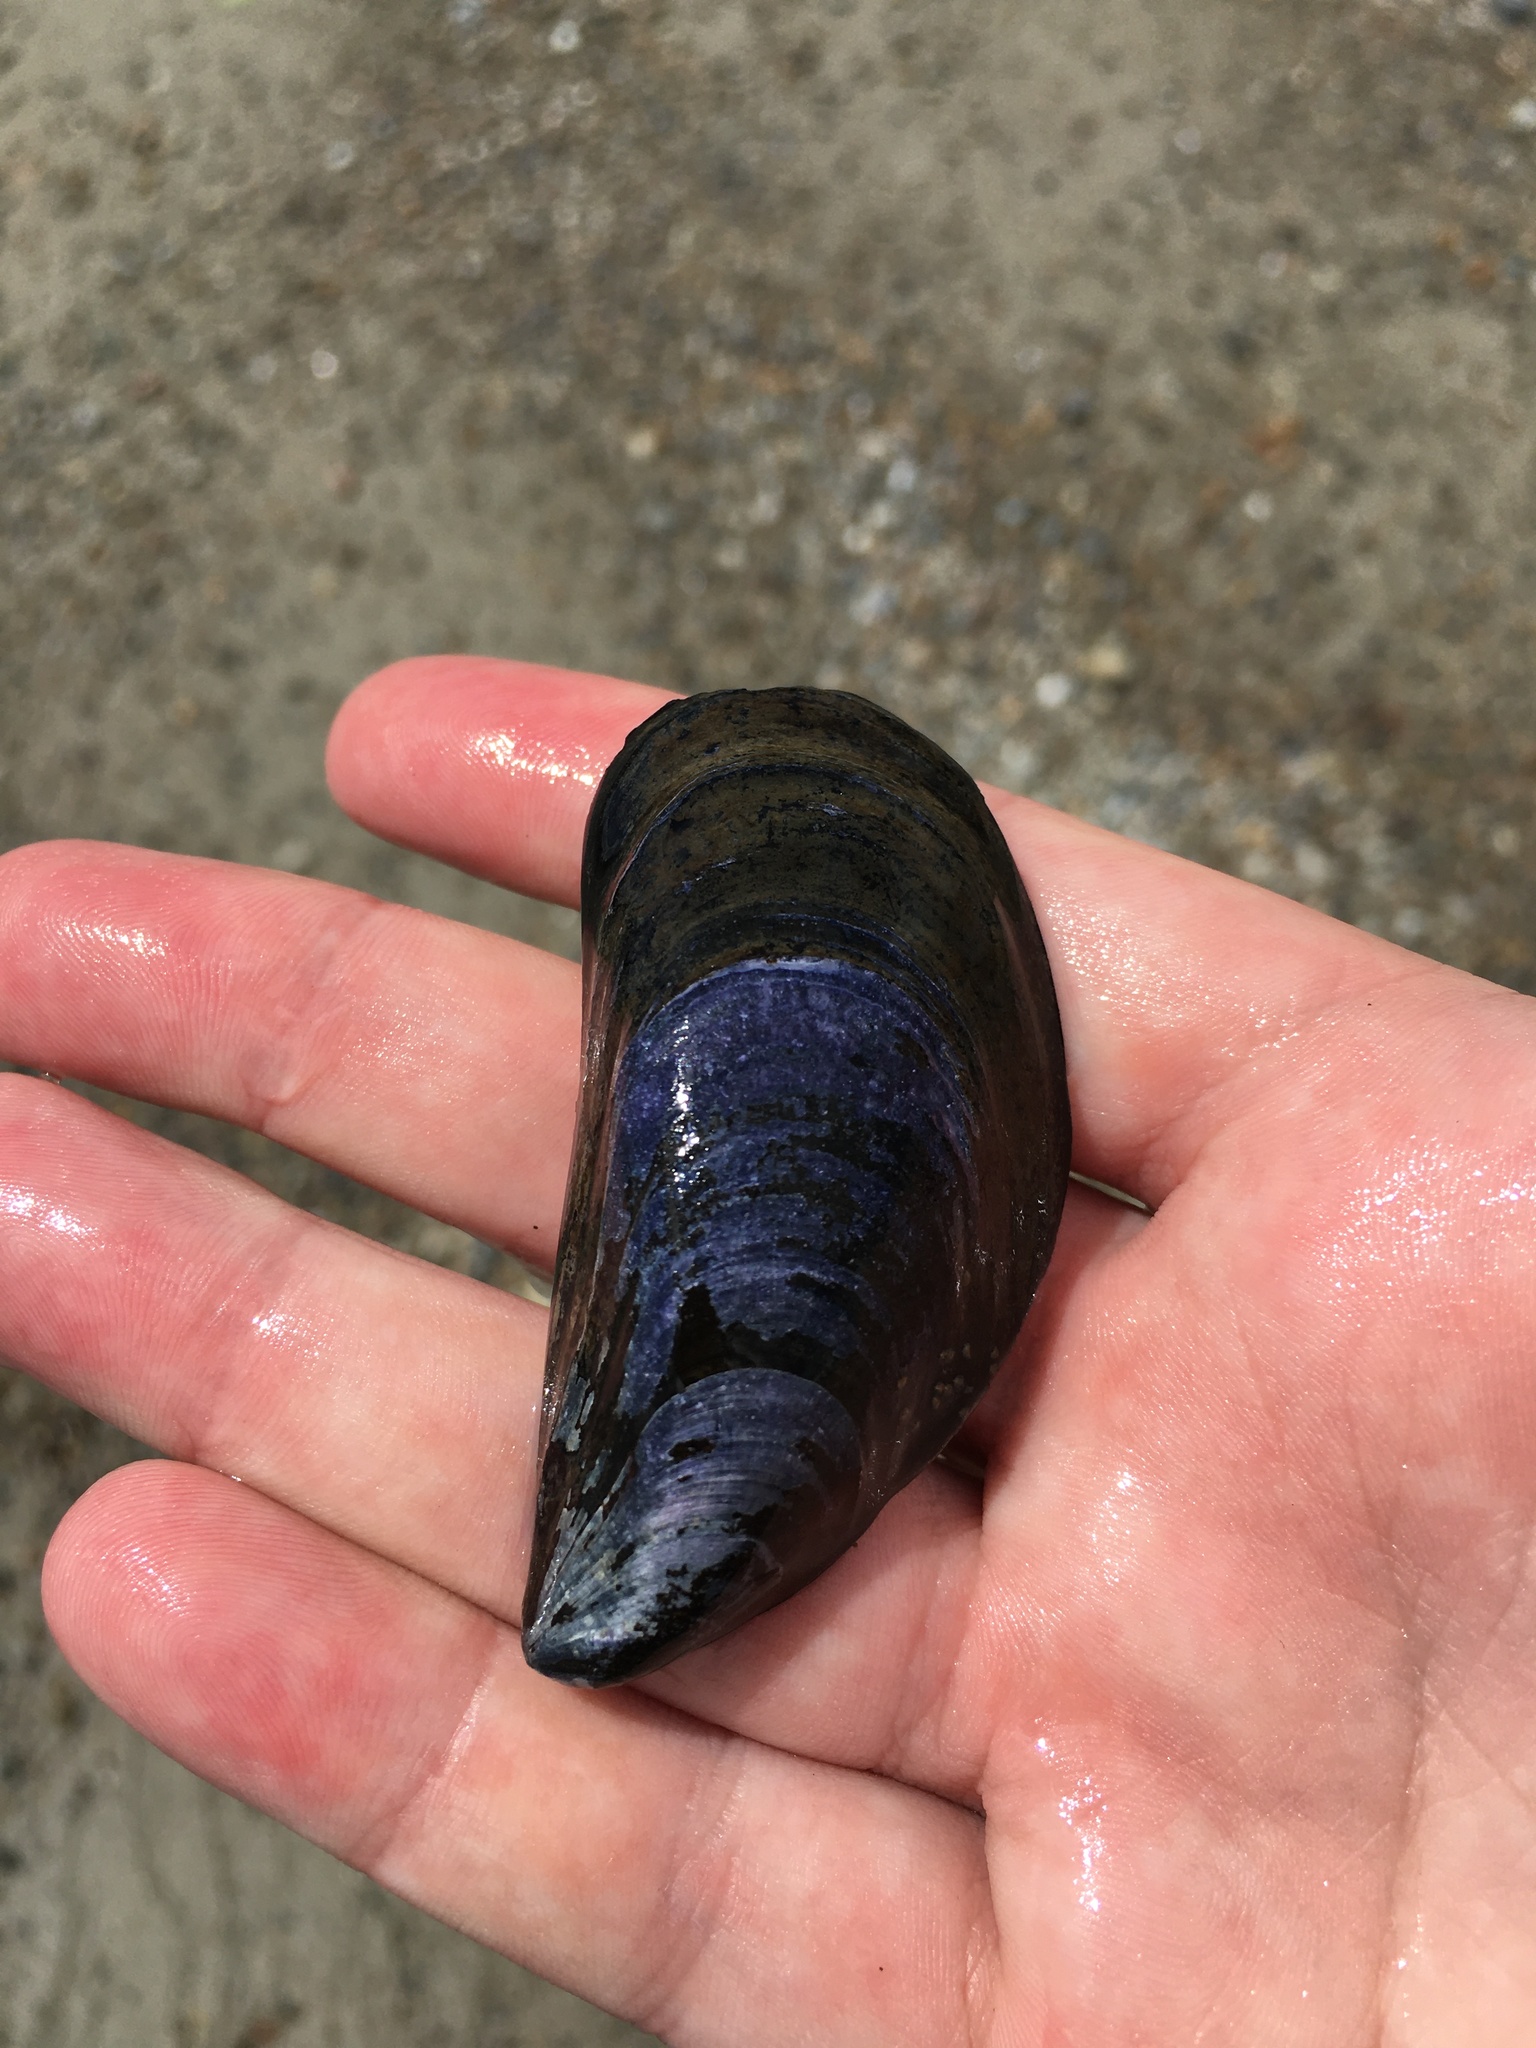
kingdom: Animalia
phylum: Mollusca
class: Bivalvia
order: Mytilida
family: Mytilidae
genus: Mytilus
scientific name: Mytilus edulis
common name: Blue mussel
